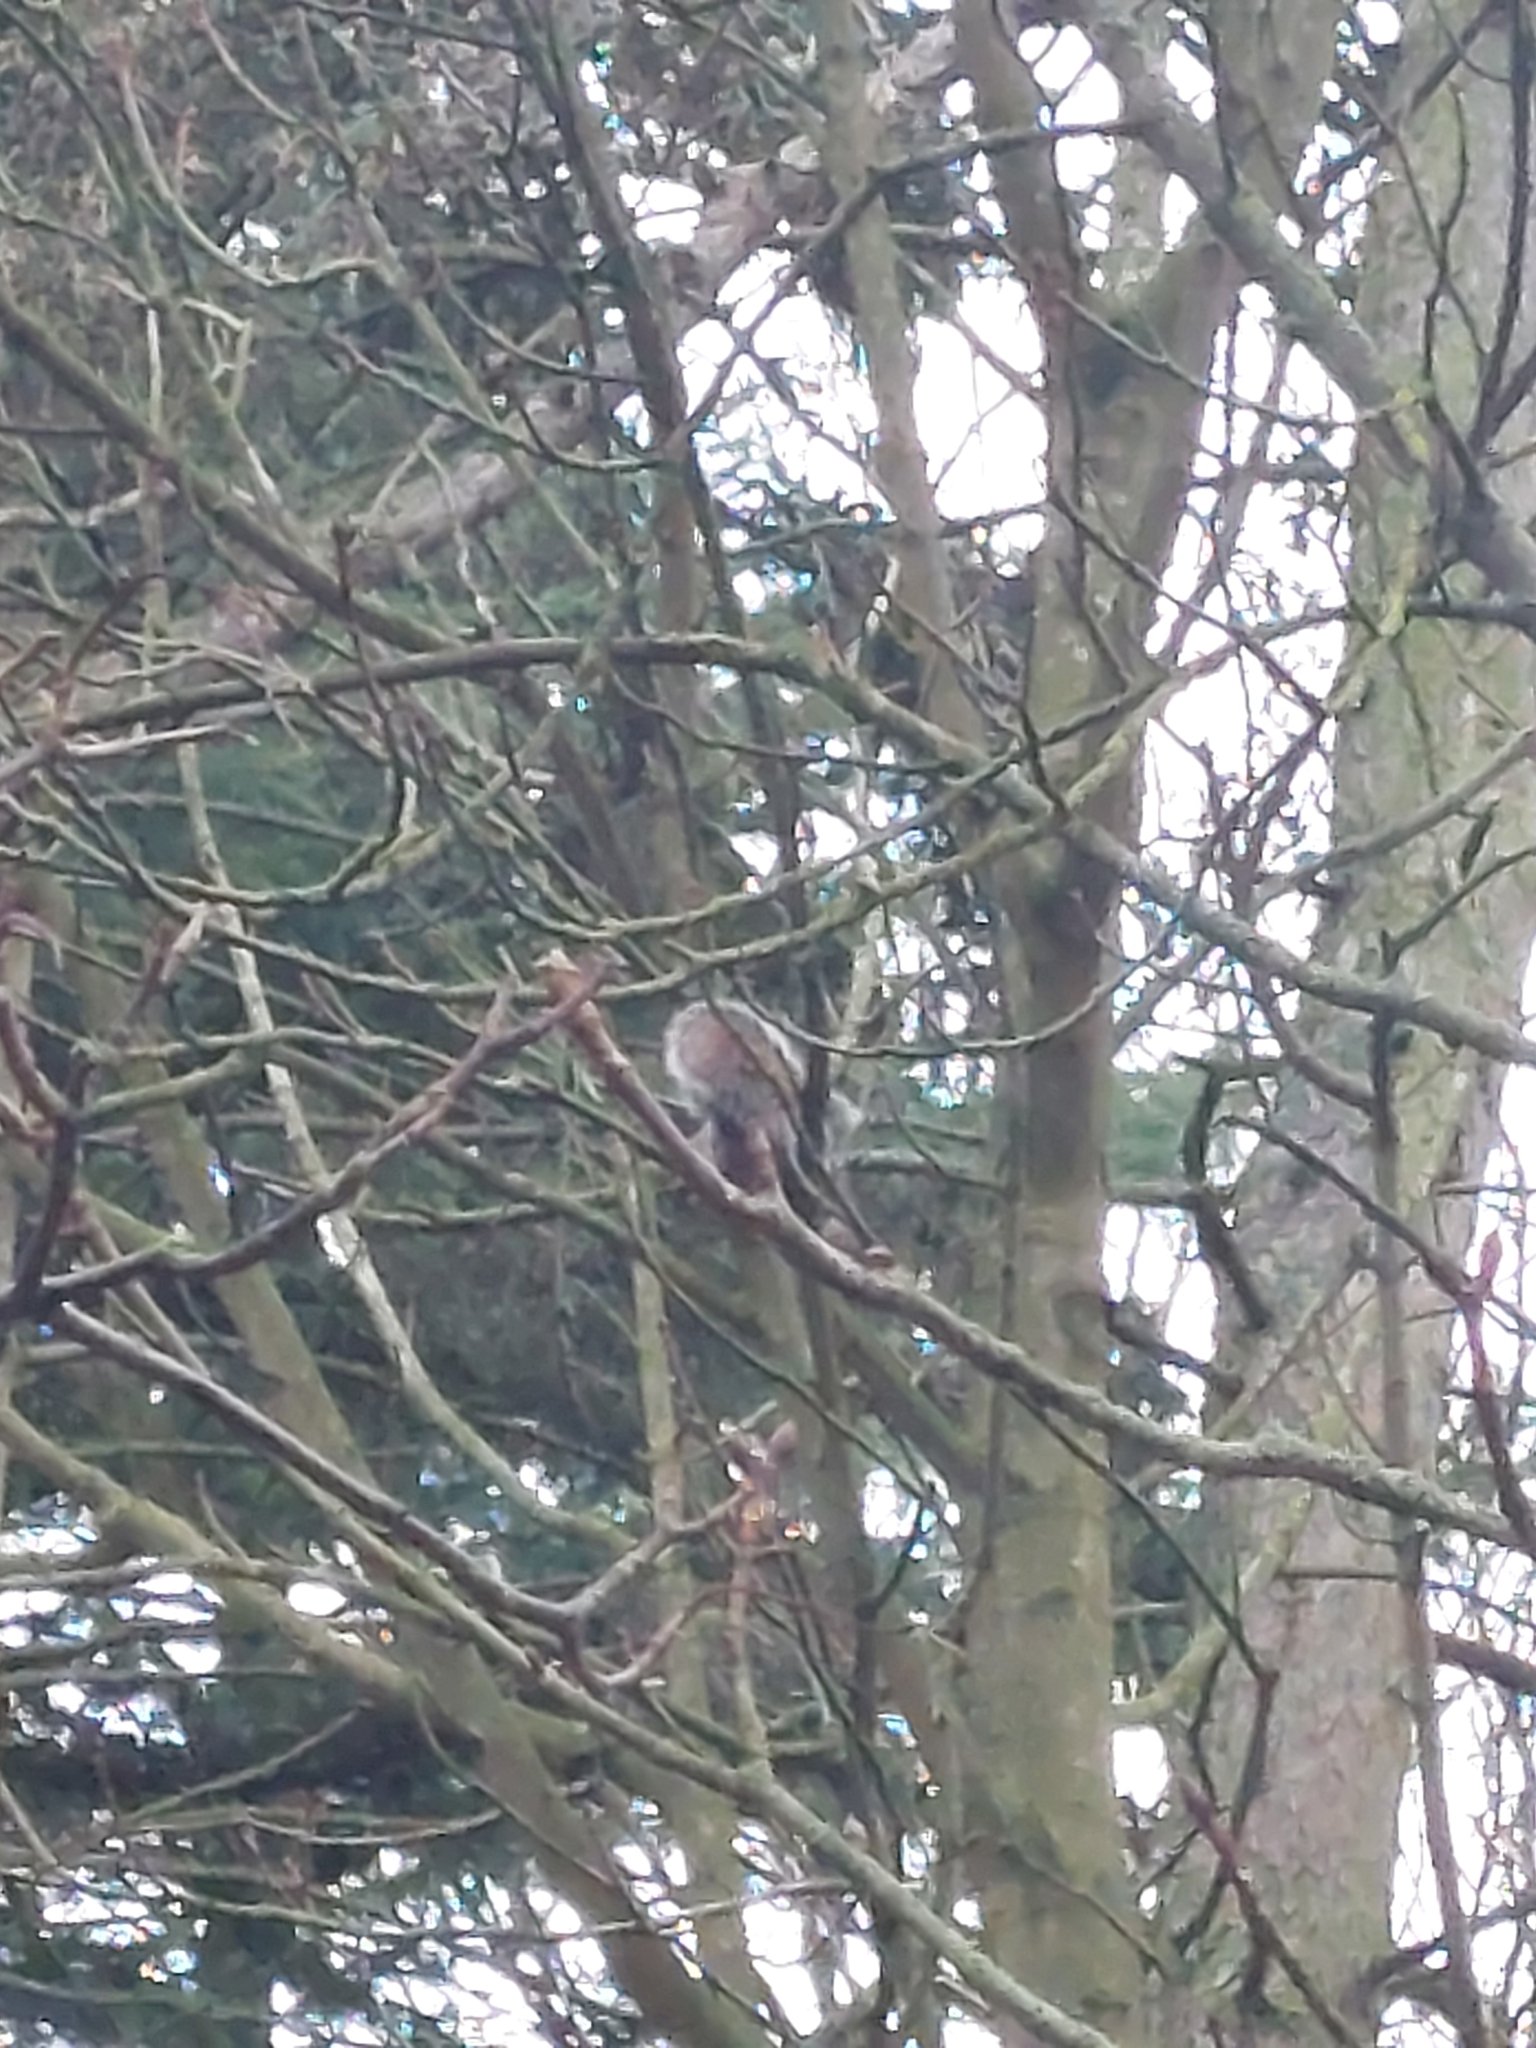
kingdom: Animalia
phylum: Chordata
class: Mammalia
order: Rodentia
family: Sciuridae
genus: Sciurus
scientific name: Sciurus carolinensis
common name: Eastern gray squirrel
